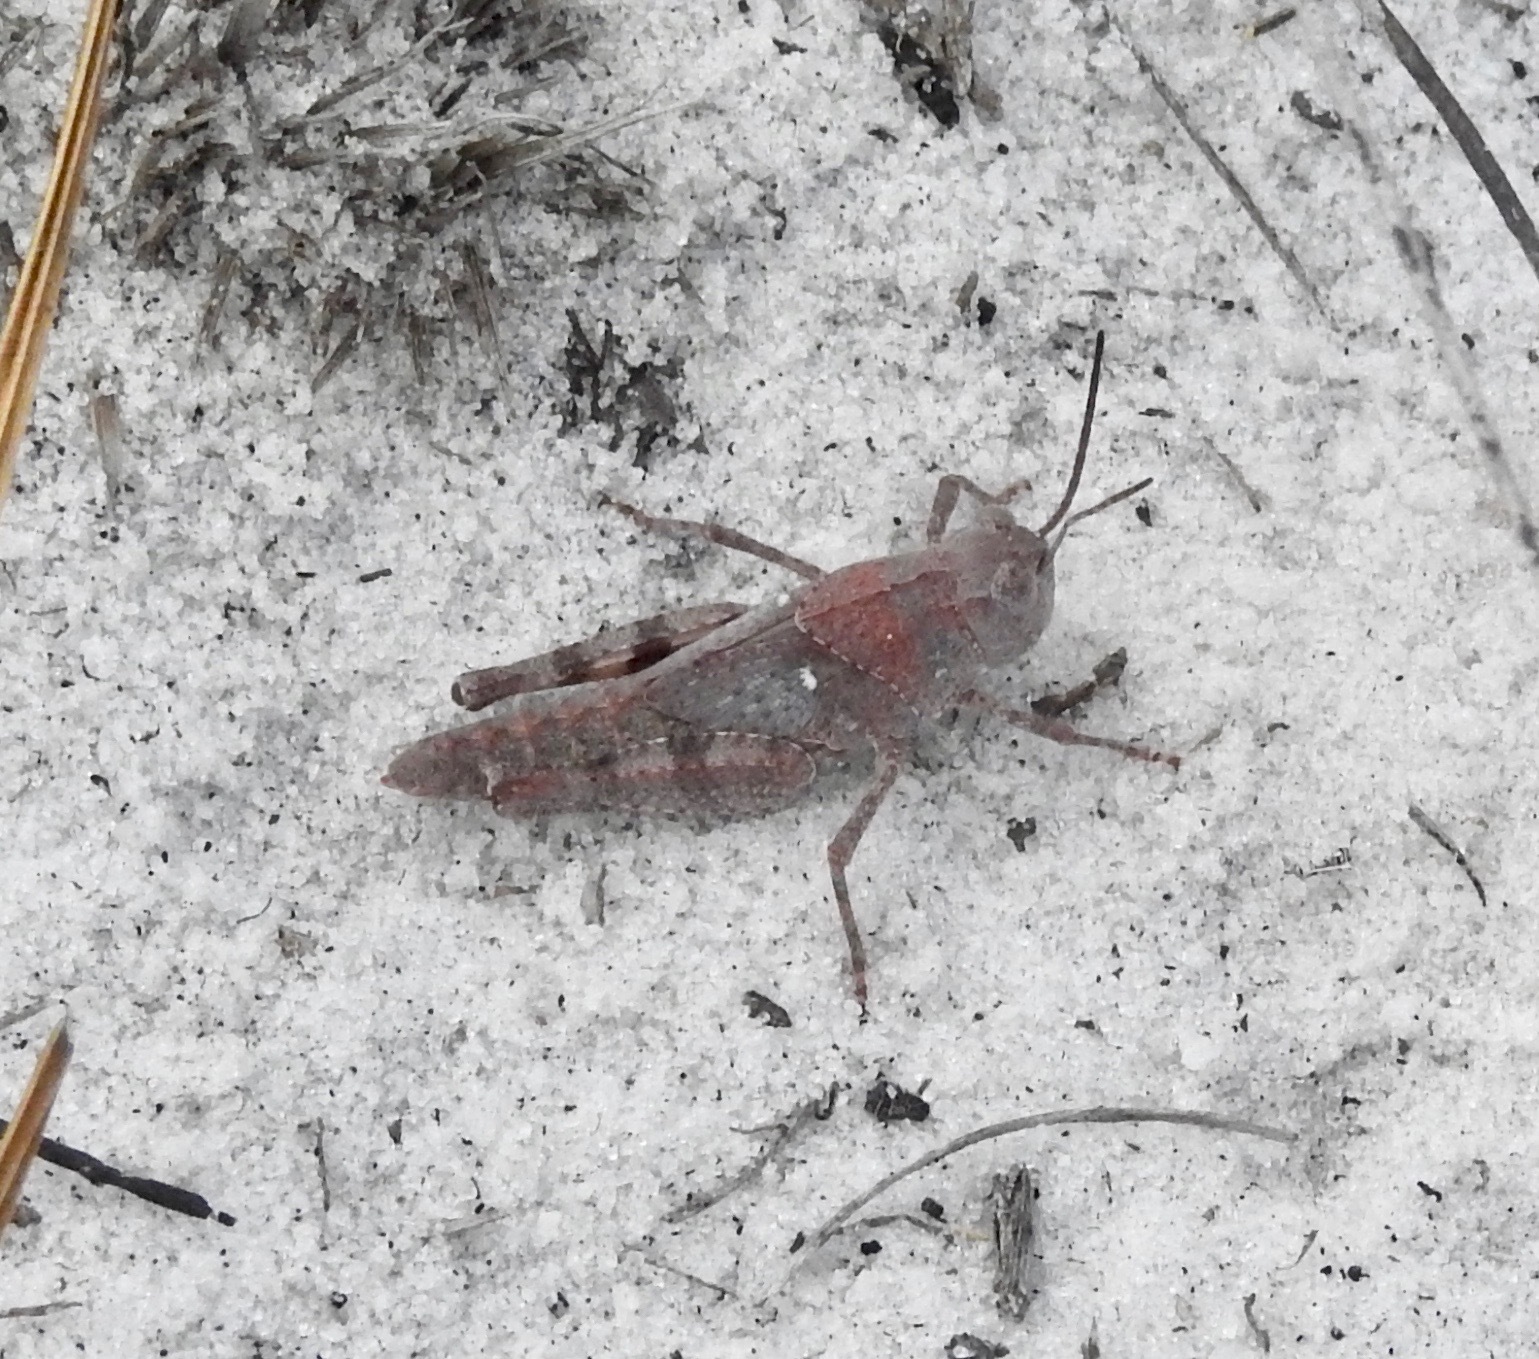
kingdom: Animalia
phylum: Arthropoda
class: Insecta
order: Orthoptera
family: Acrididae
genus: Spharagemon
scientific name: Spharagemon marmoratum
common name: Marbled grasshopper
